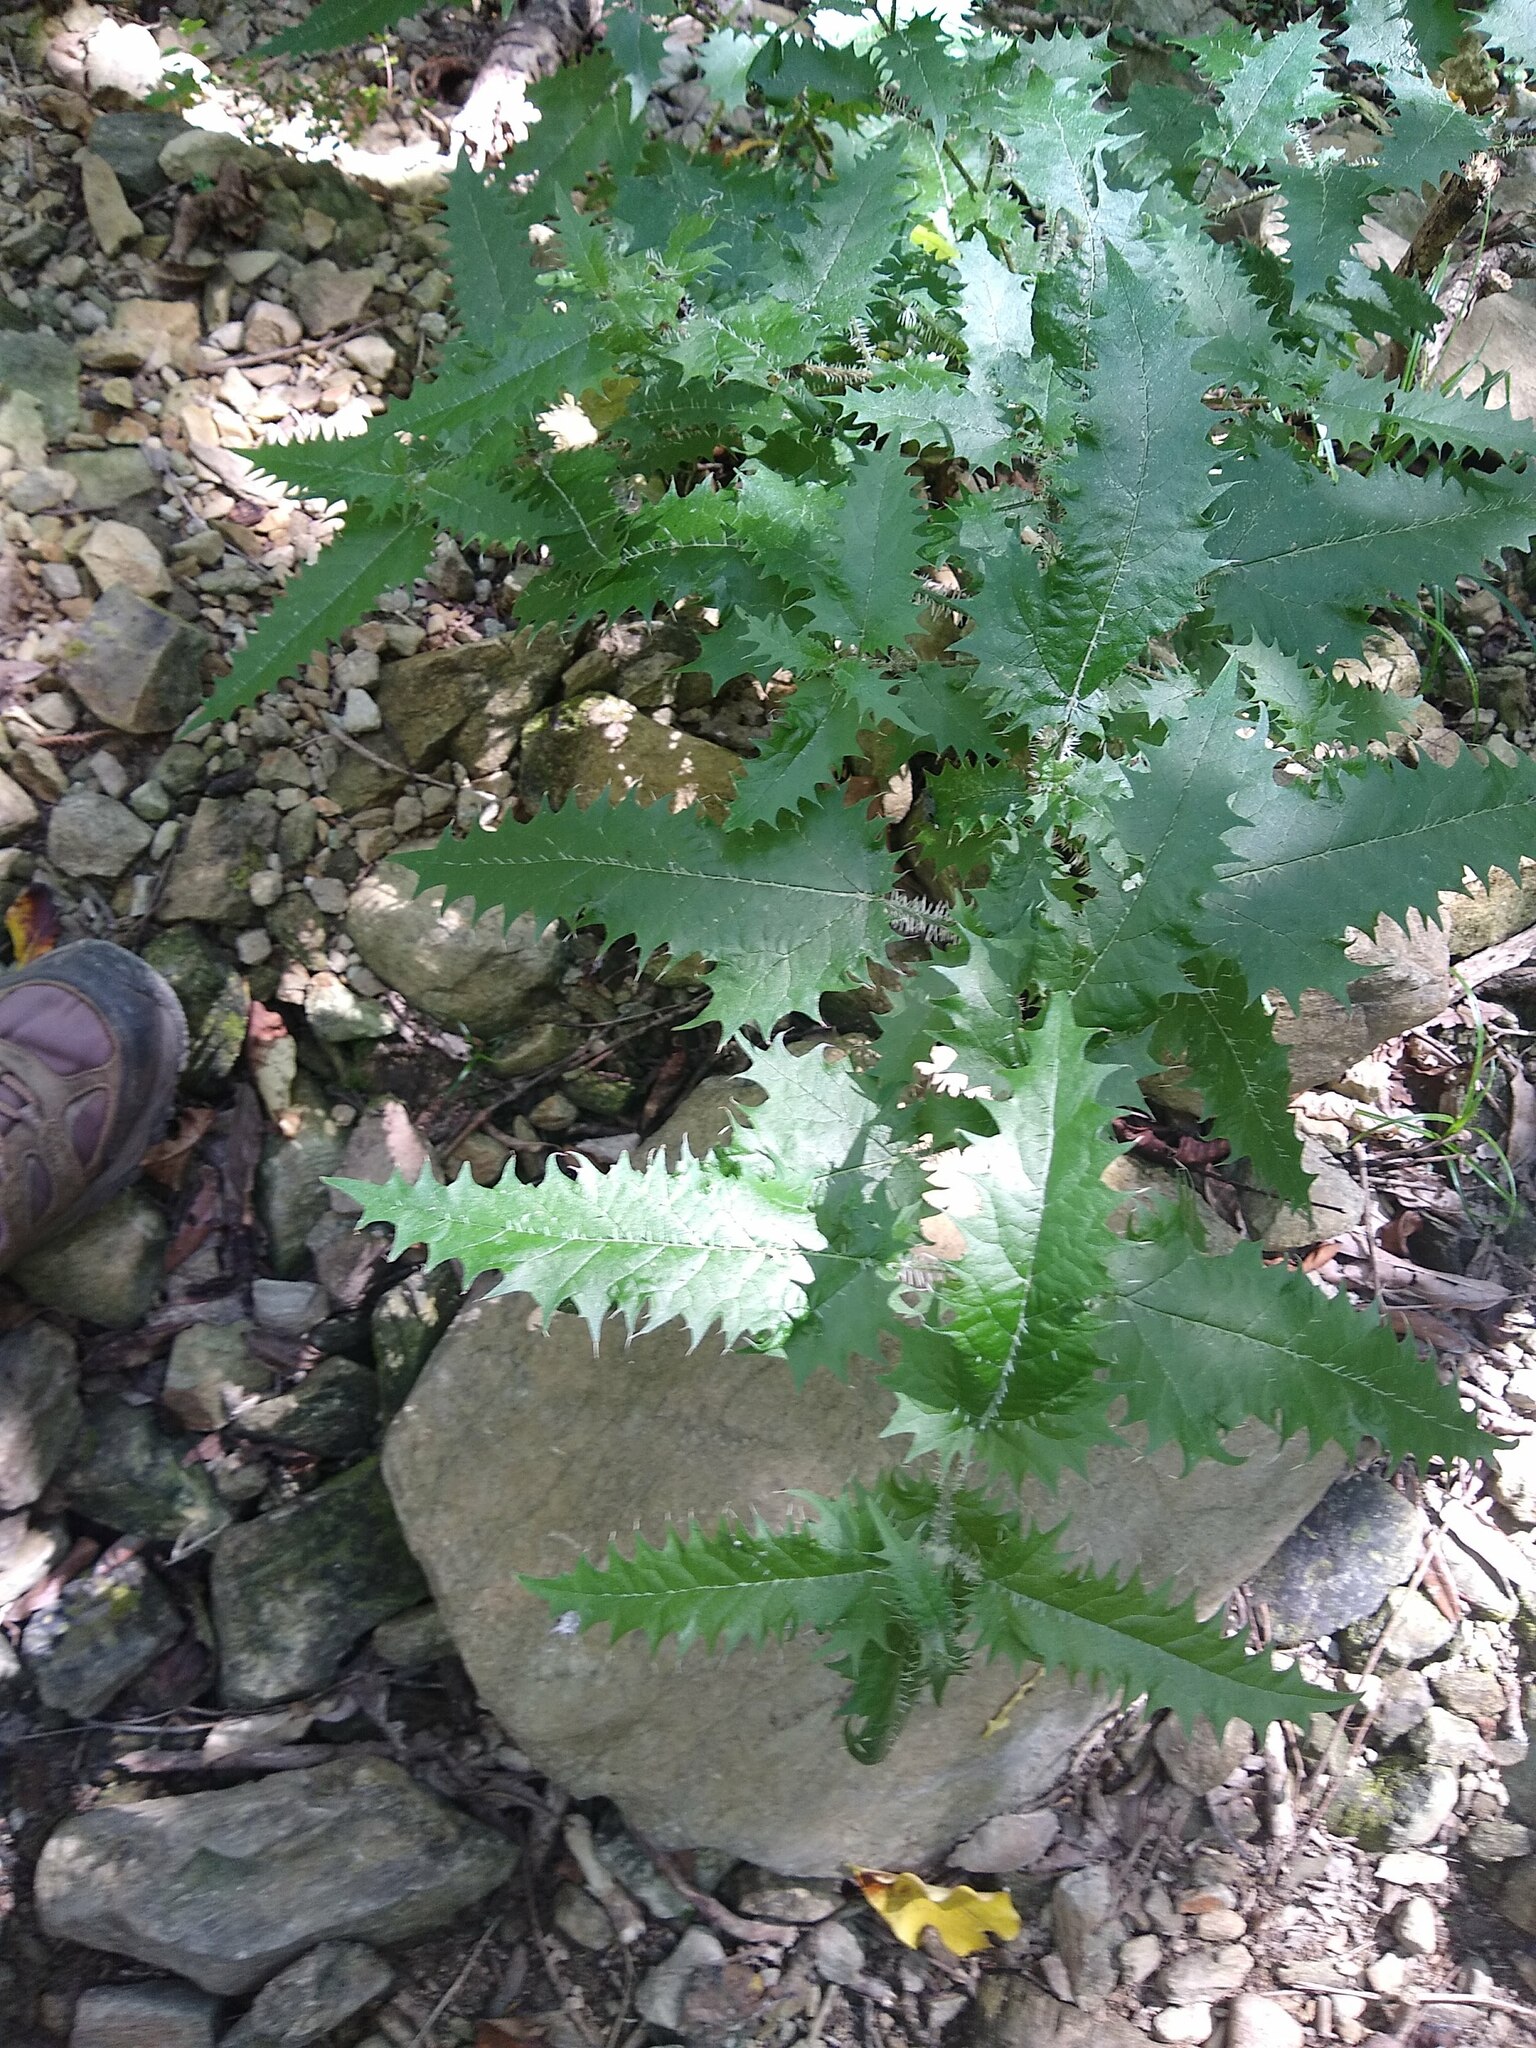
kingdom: Plantae
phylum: Tracheophyta
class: Magnoliopsida
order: Rosales
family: Urticaceae
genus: Urtica
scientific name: Urtica ferox
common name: Tree nettle
